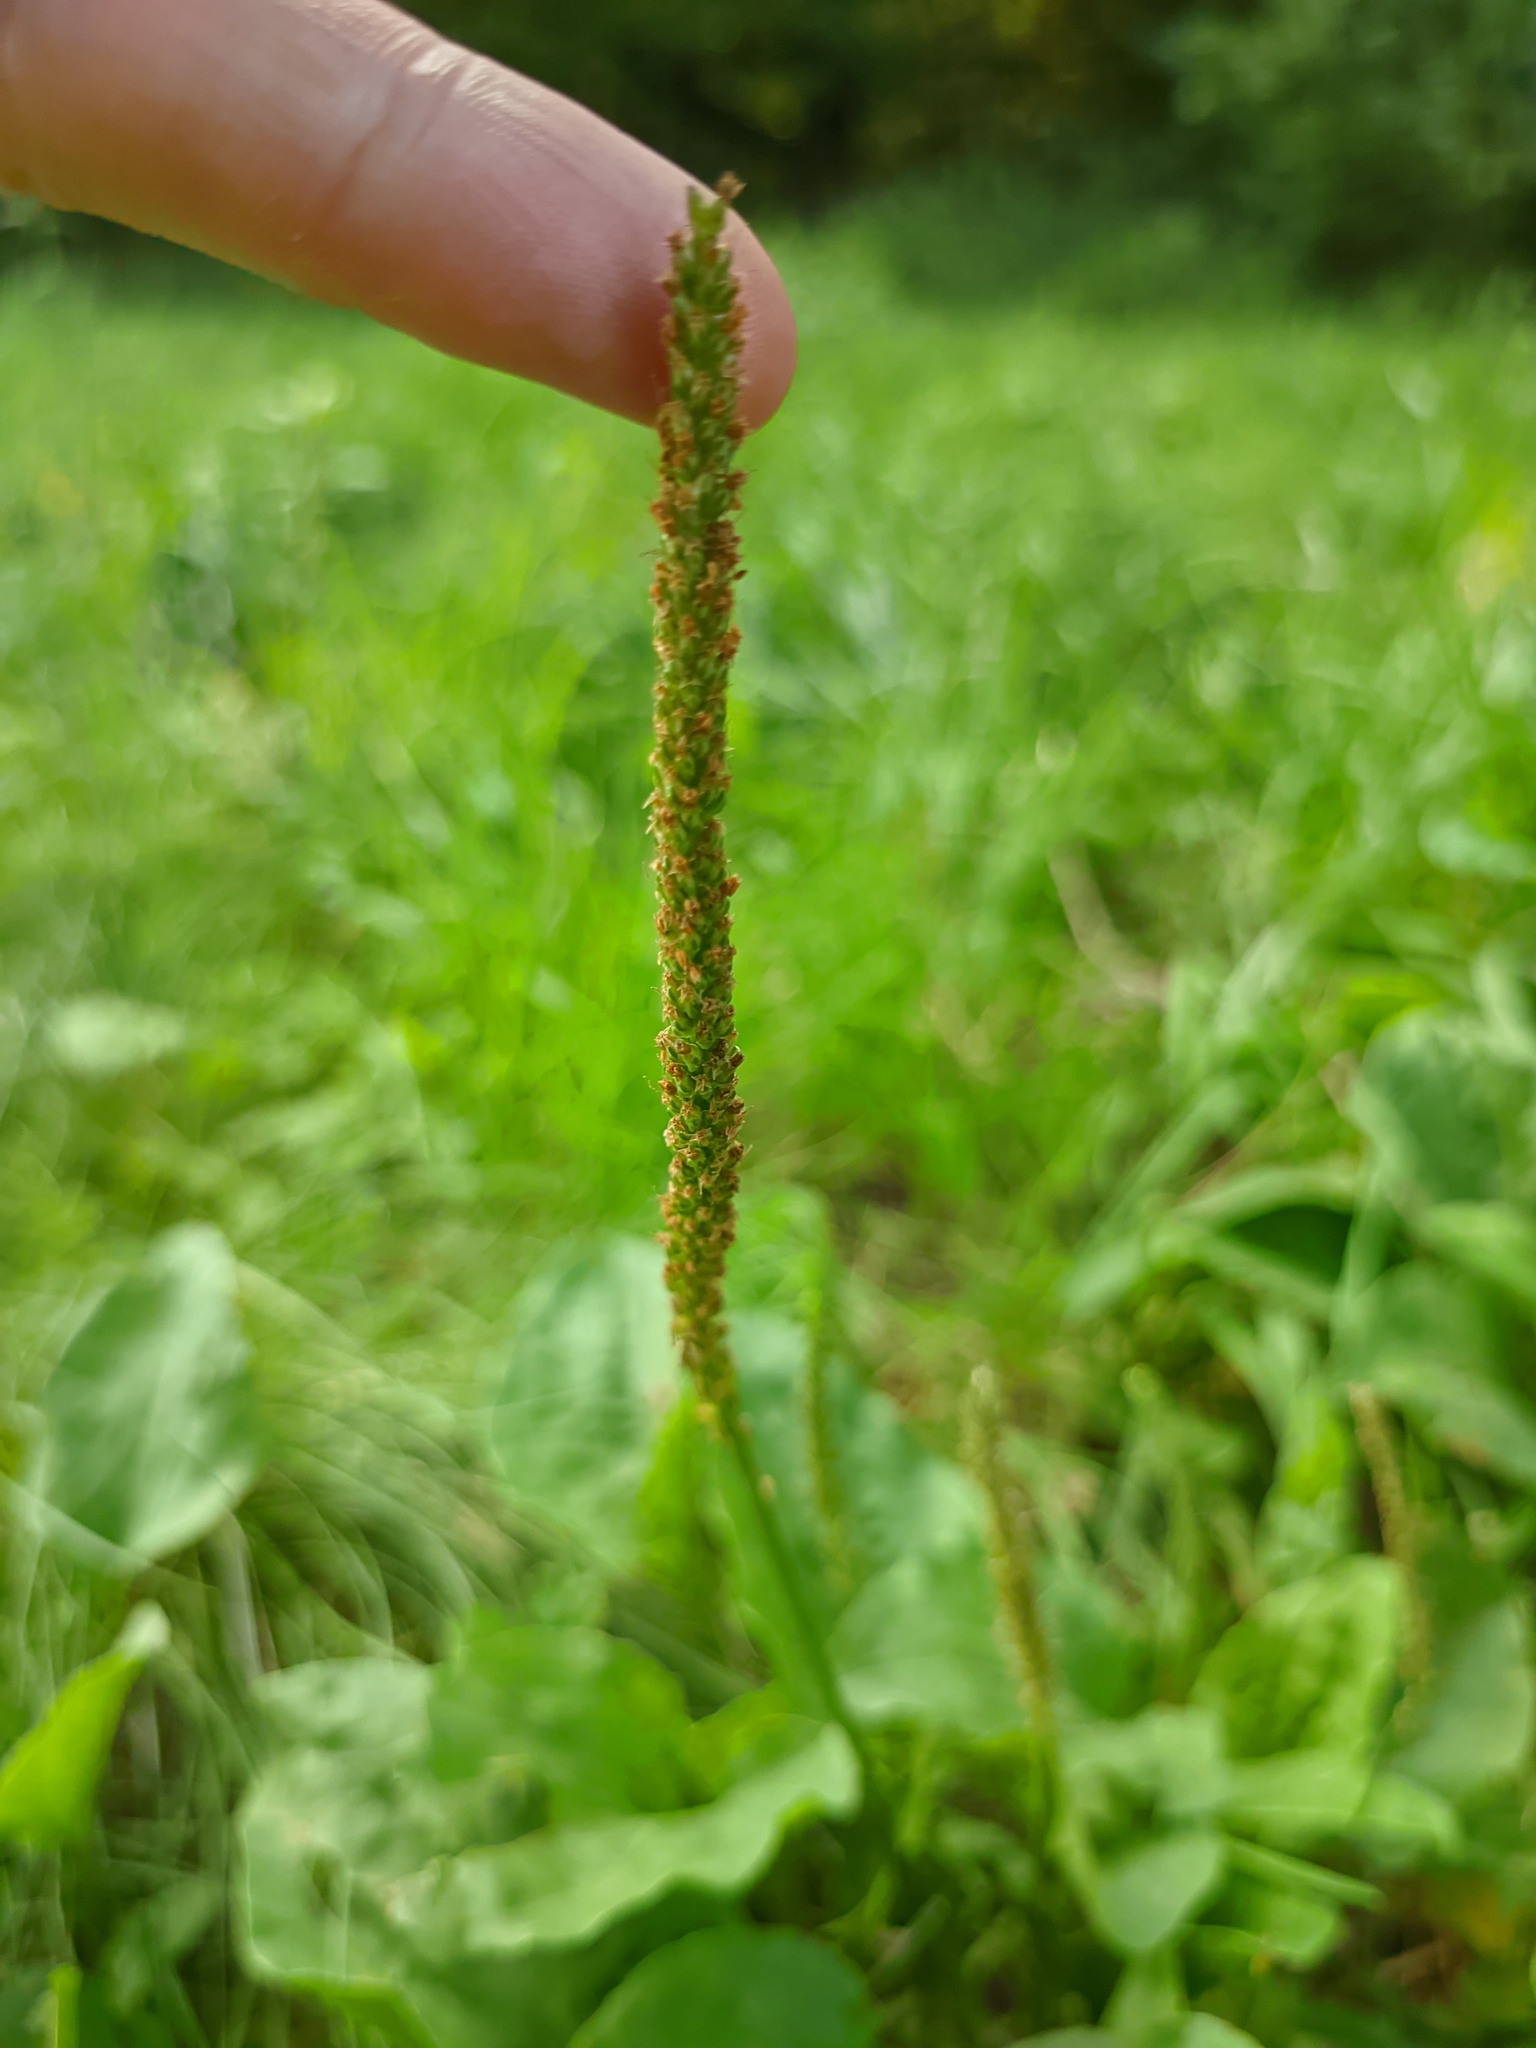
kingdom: Plantae
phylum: Tracheophyta
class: Magnoliopsida
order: Lamiales
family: Plantaginaceae
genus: Plantago
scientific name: Plantago major
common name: Common plantain
